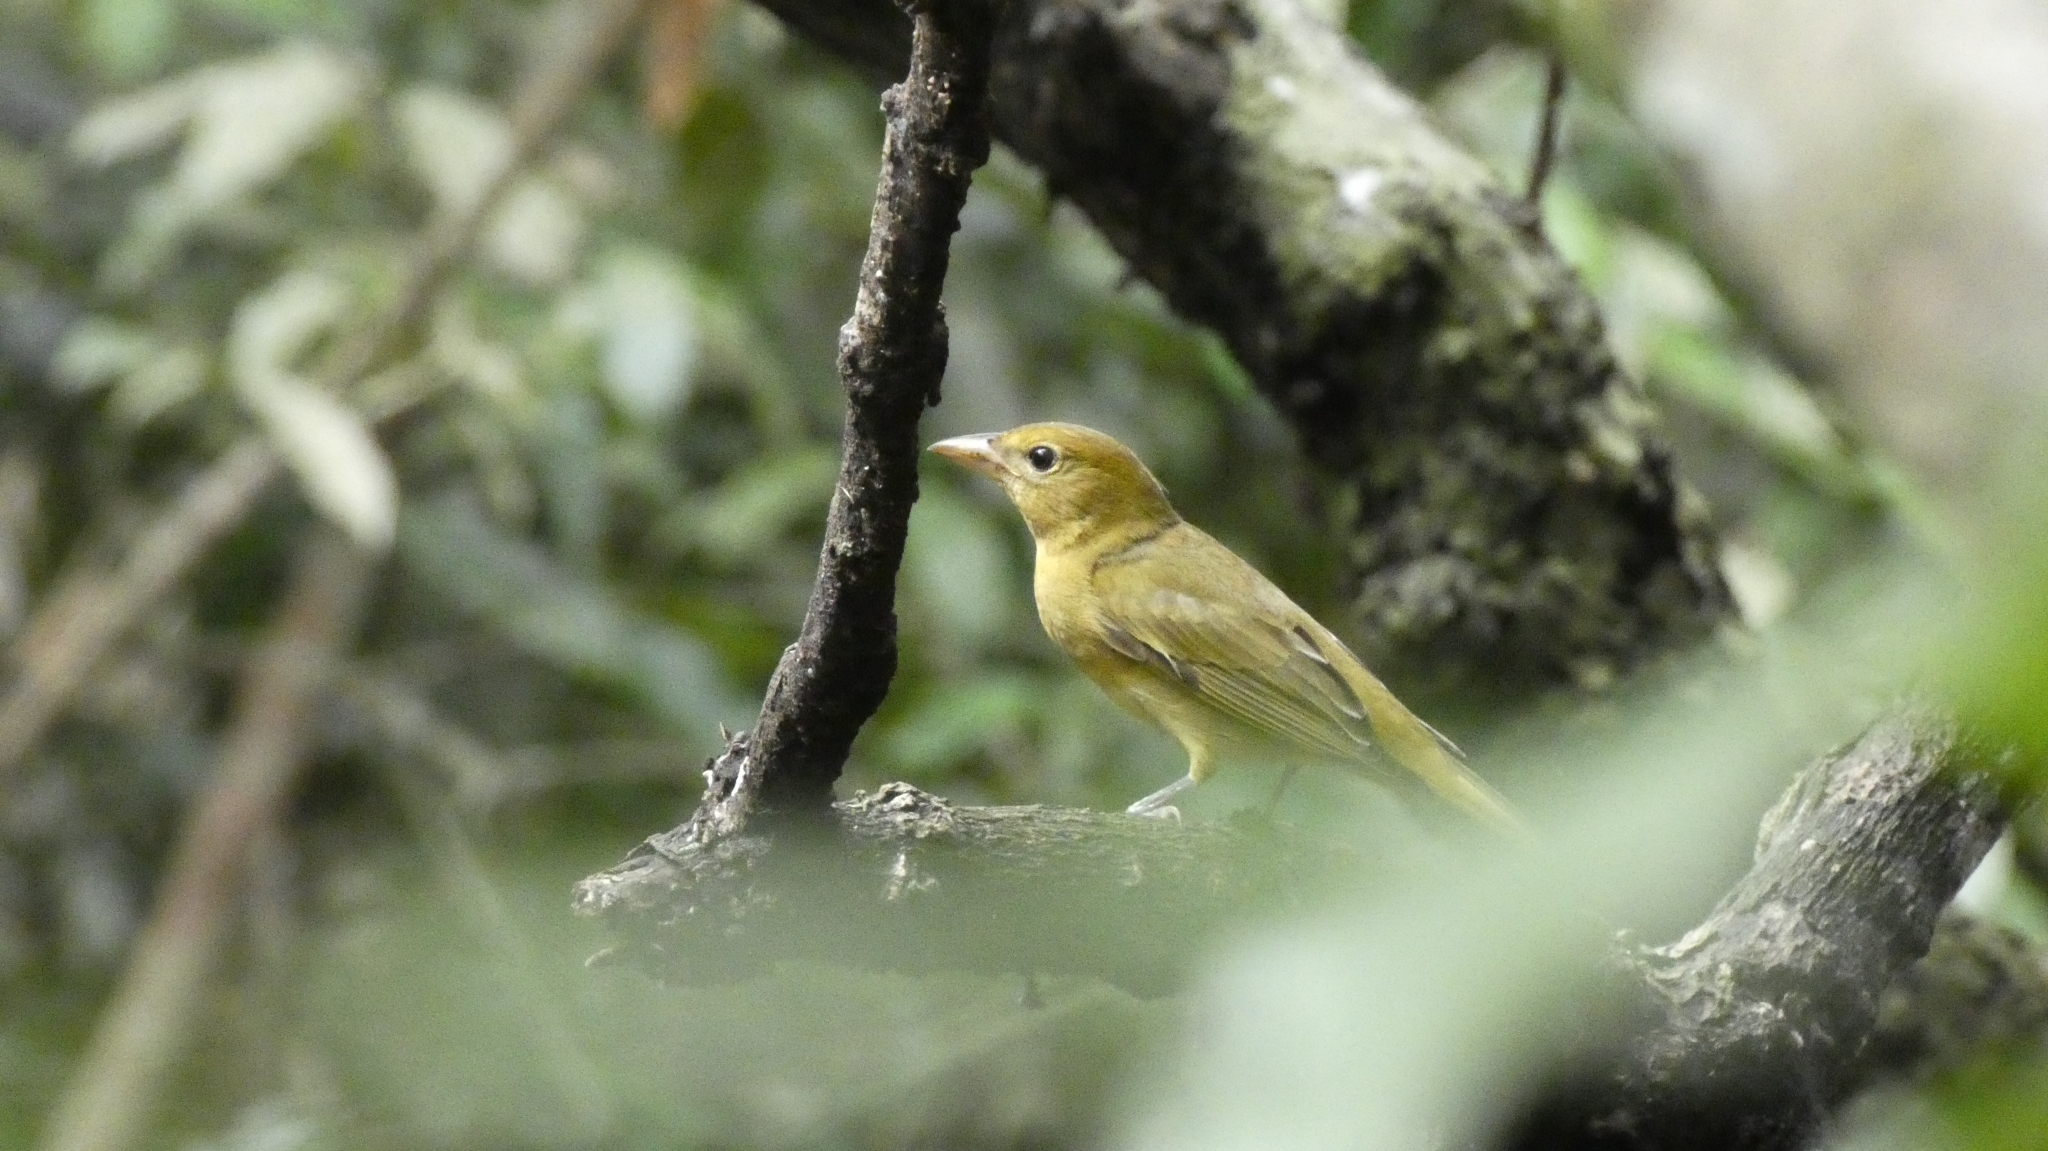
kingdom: Animalia
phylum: Chordata
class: Aves
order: Passeriformes
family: Cardinalidae
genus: Piranga
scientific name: Piranga rubra
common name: Summer tanager
